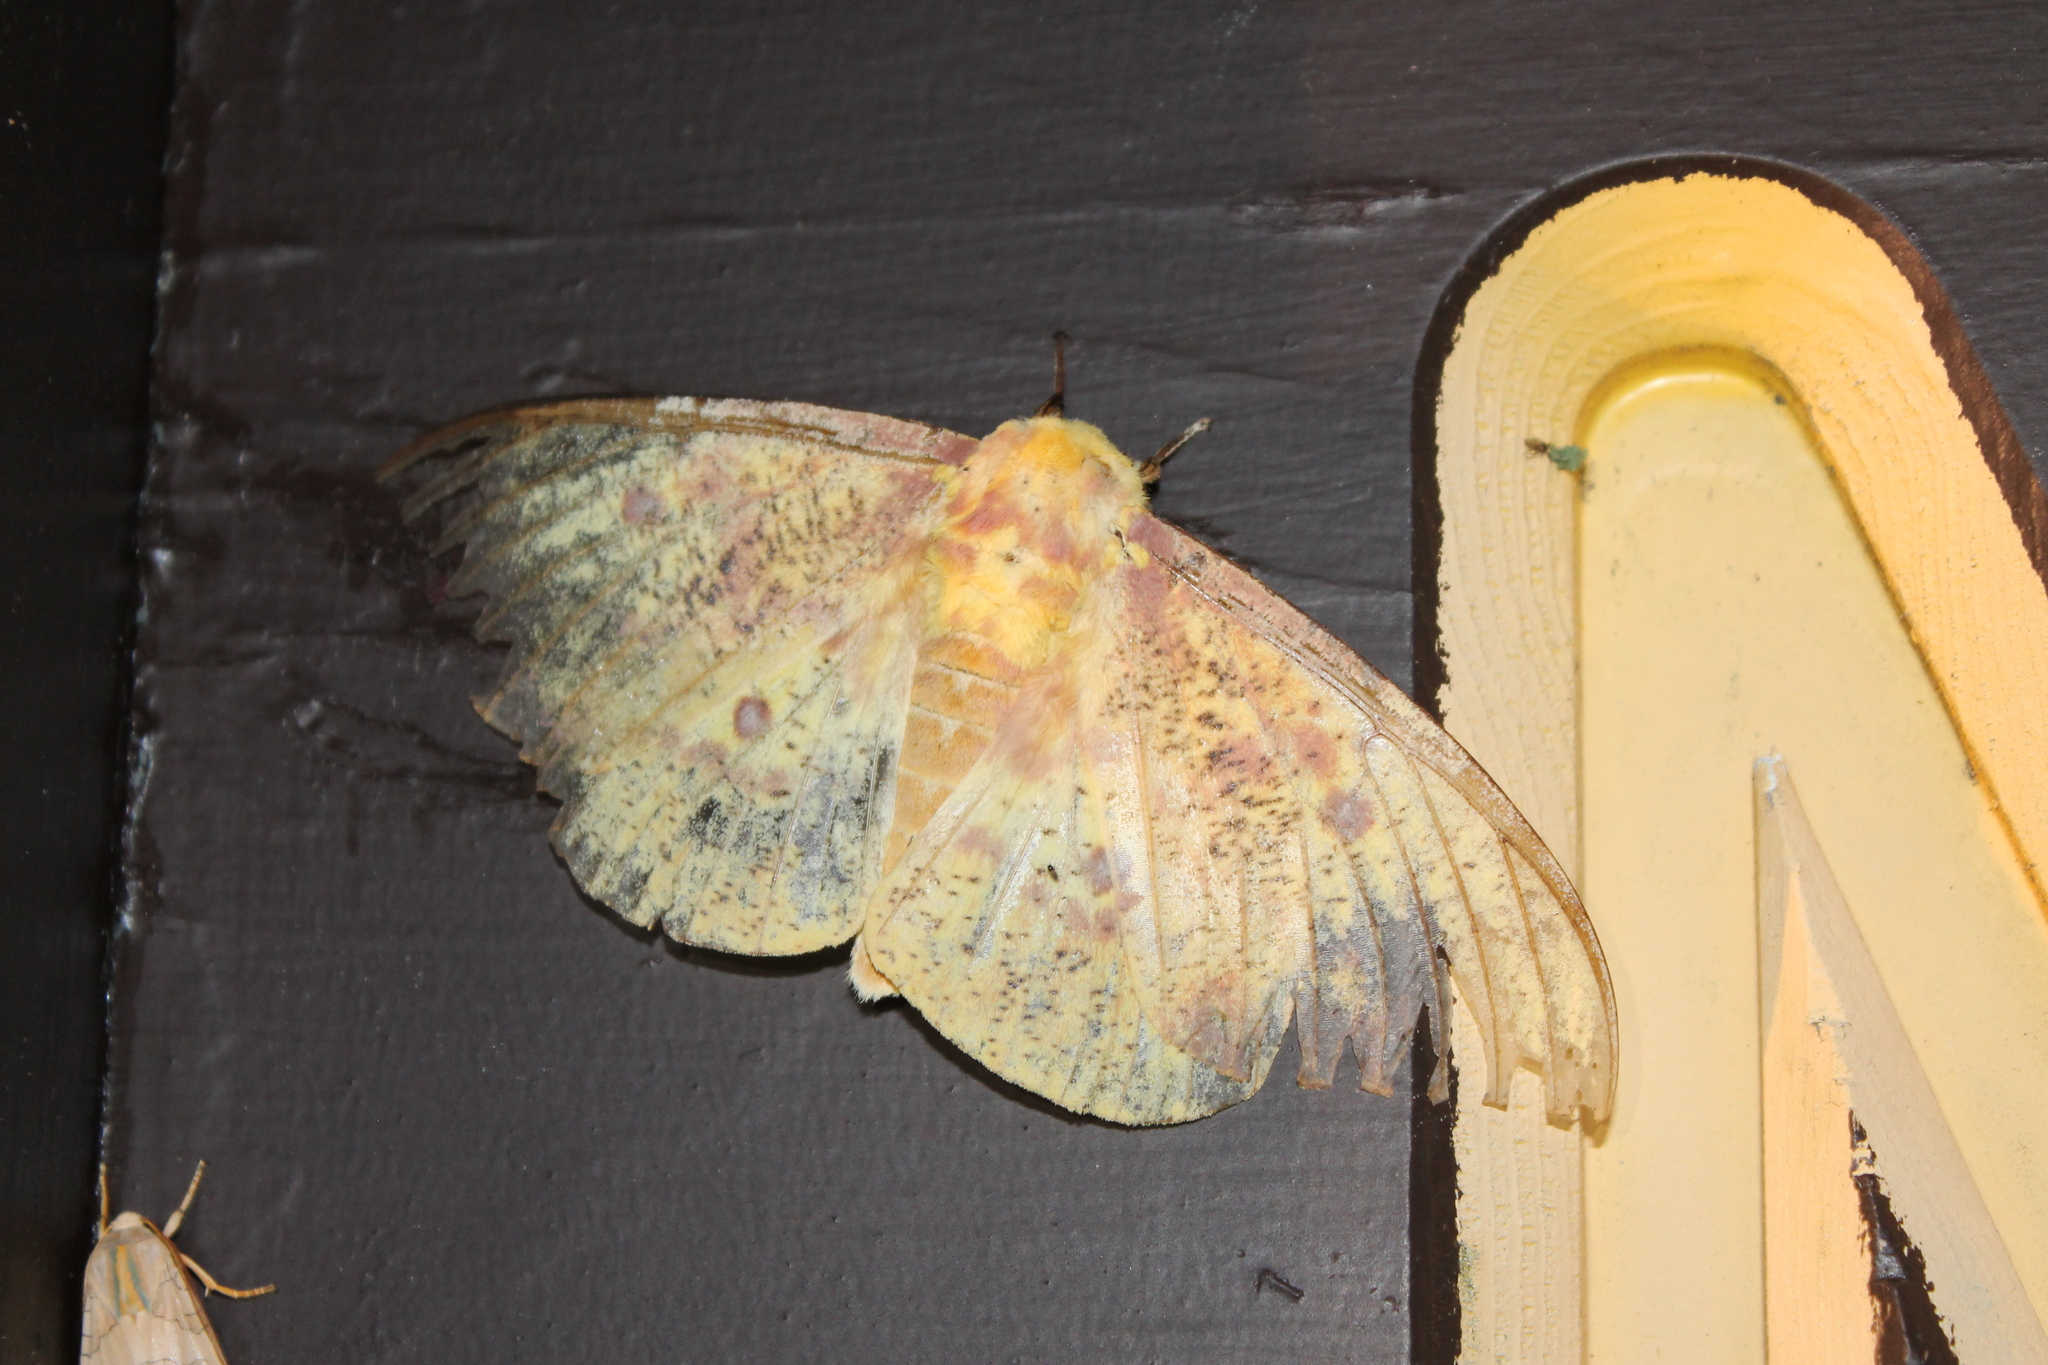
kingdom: Animalia
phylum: Arthropoda
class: Insecta
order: Lepidoptera
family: Saturniidae
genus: Eacles
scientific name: Eacles imperialis
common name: Imperial moth
